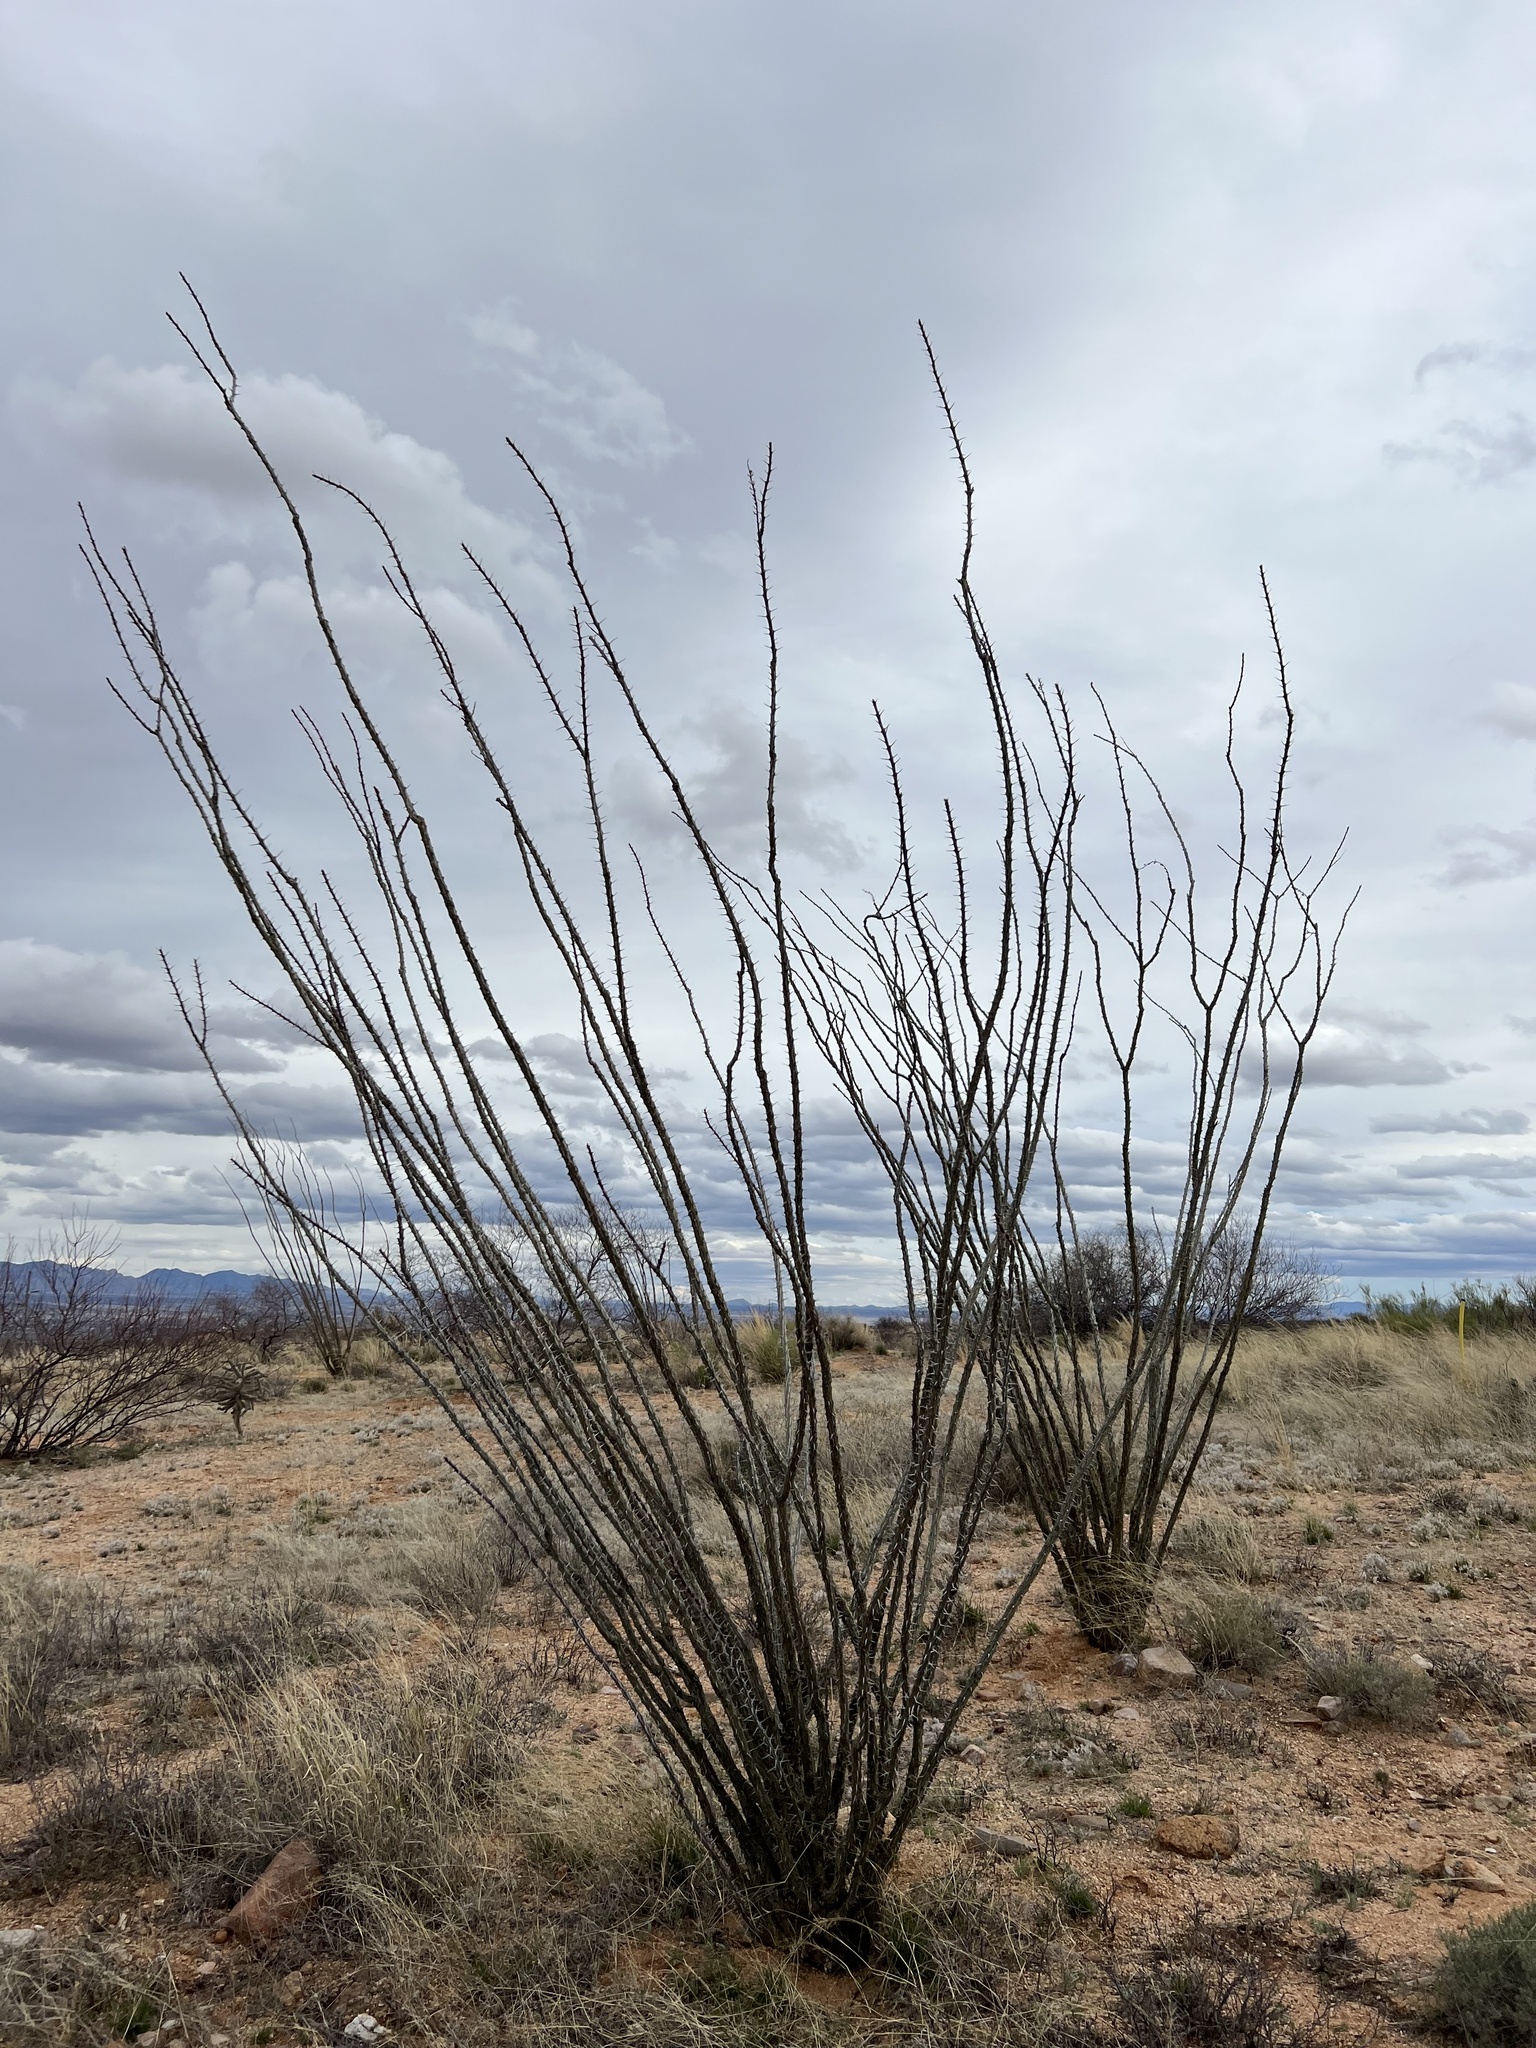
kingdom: Plantae
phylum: Tracheophyta
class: Magnoliopsida
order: Ericales
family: Fouquieriaceae
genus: Fouquieria
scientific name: Fouquieria splendens
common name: Vine-cactus
